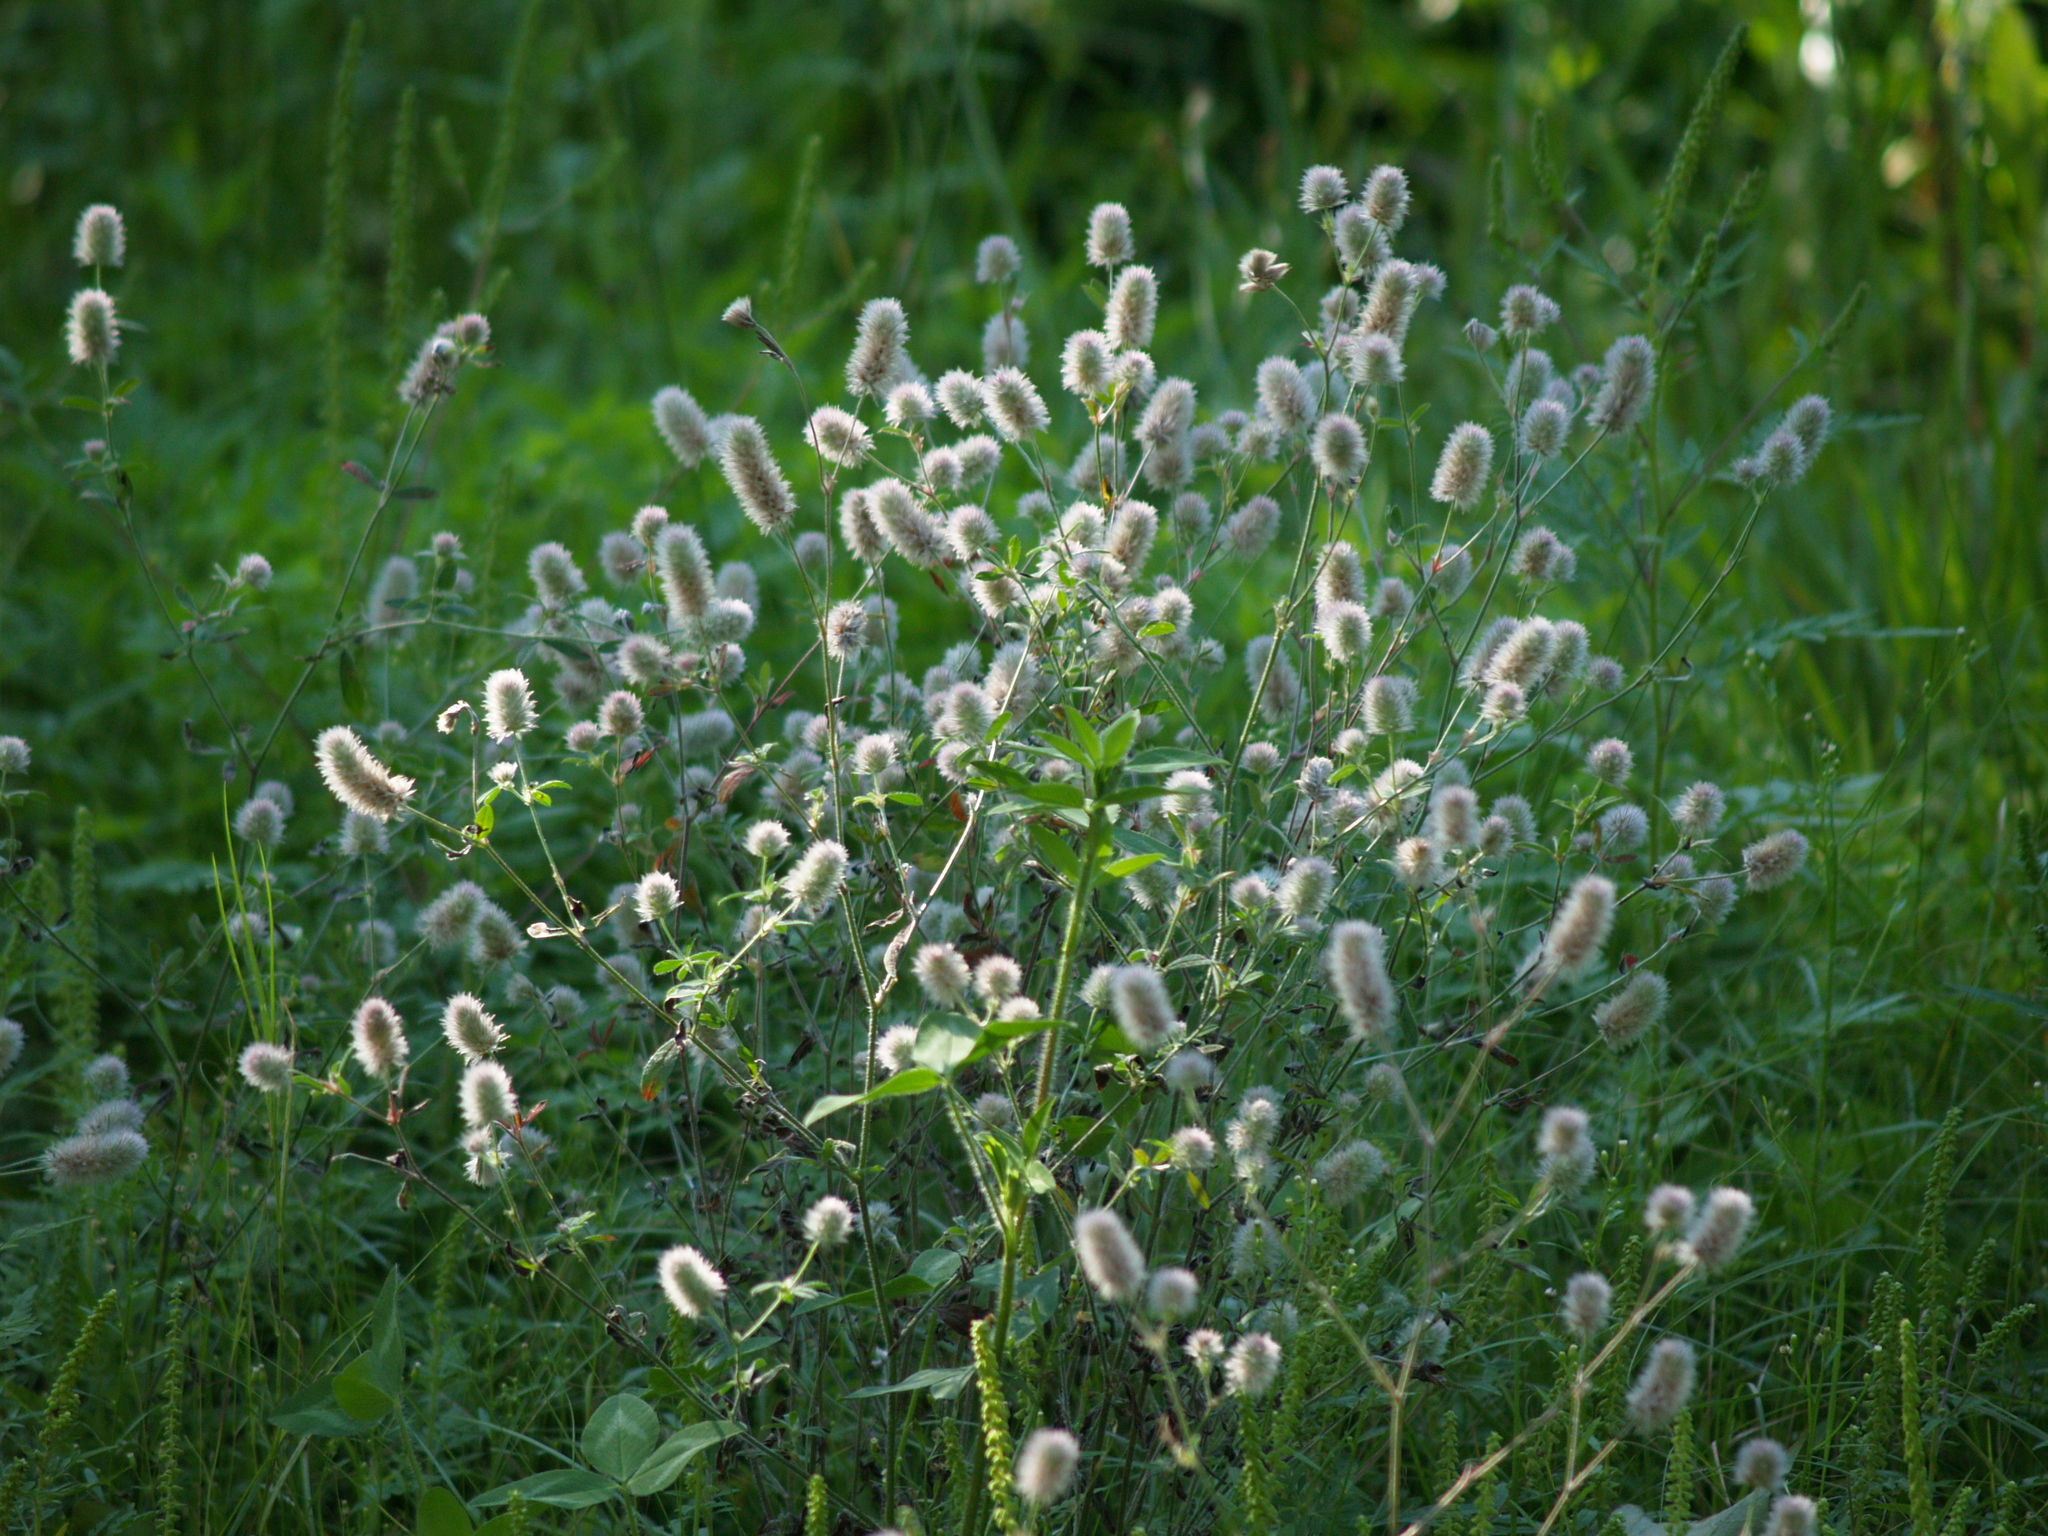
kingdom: Plantae
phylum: Tracheophyta
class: Magnoliopsida
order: Fabales
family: Fabaceae
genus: Trifolium
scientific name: Trifolium arvense
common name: Hare's-foot clover
